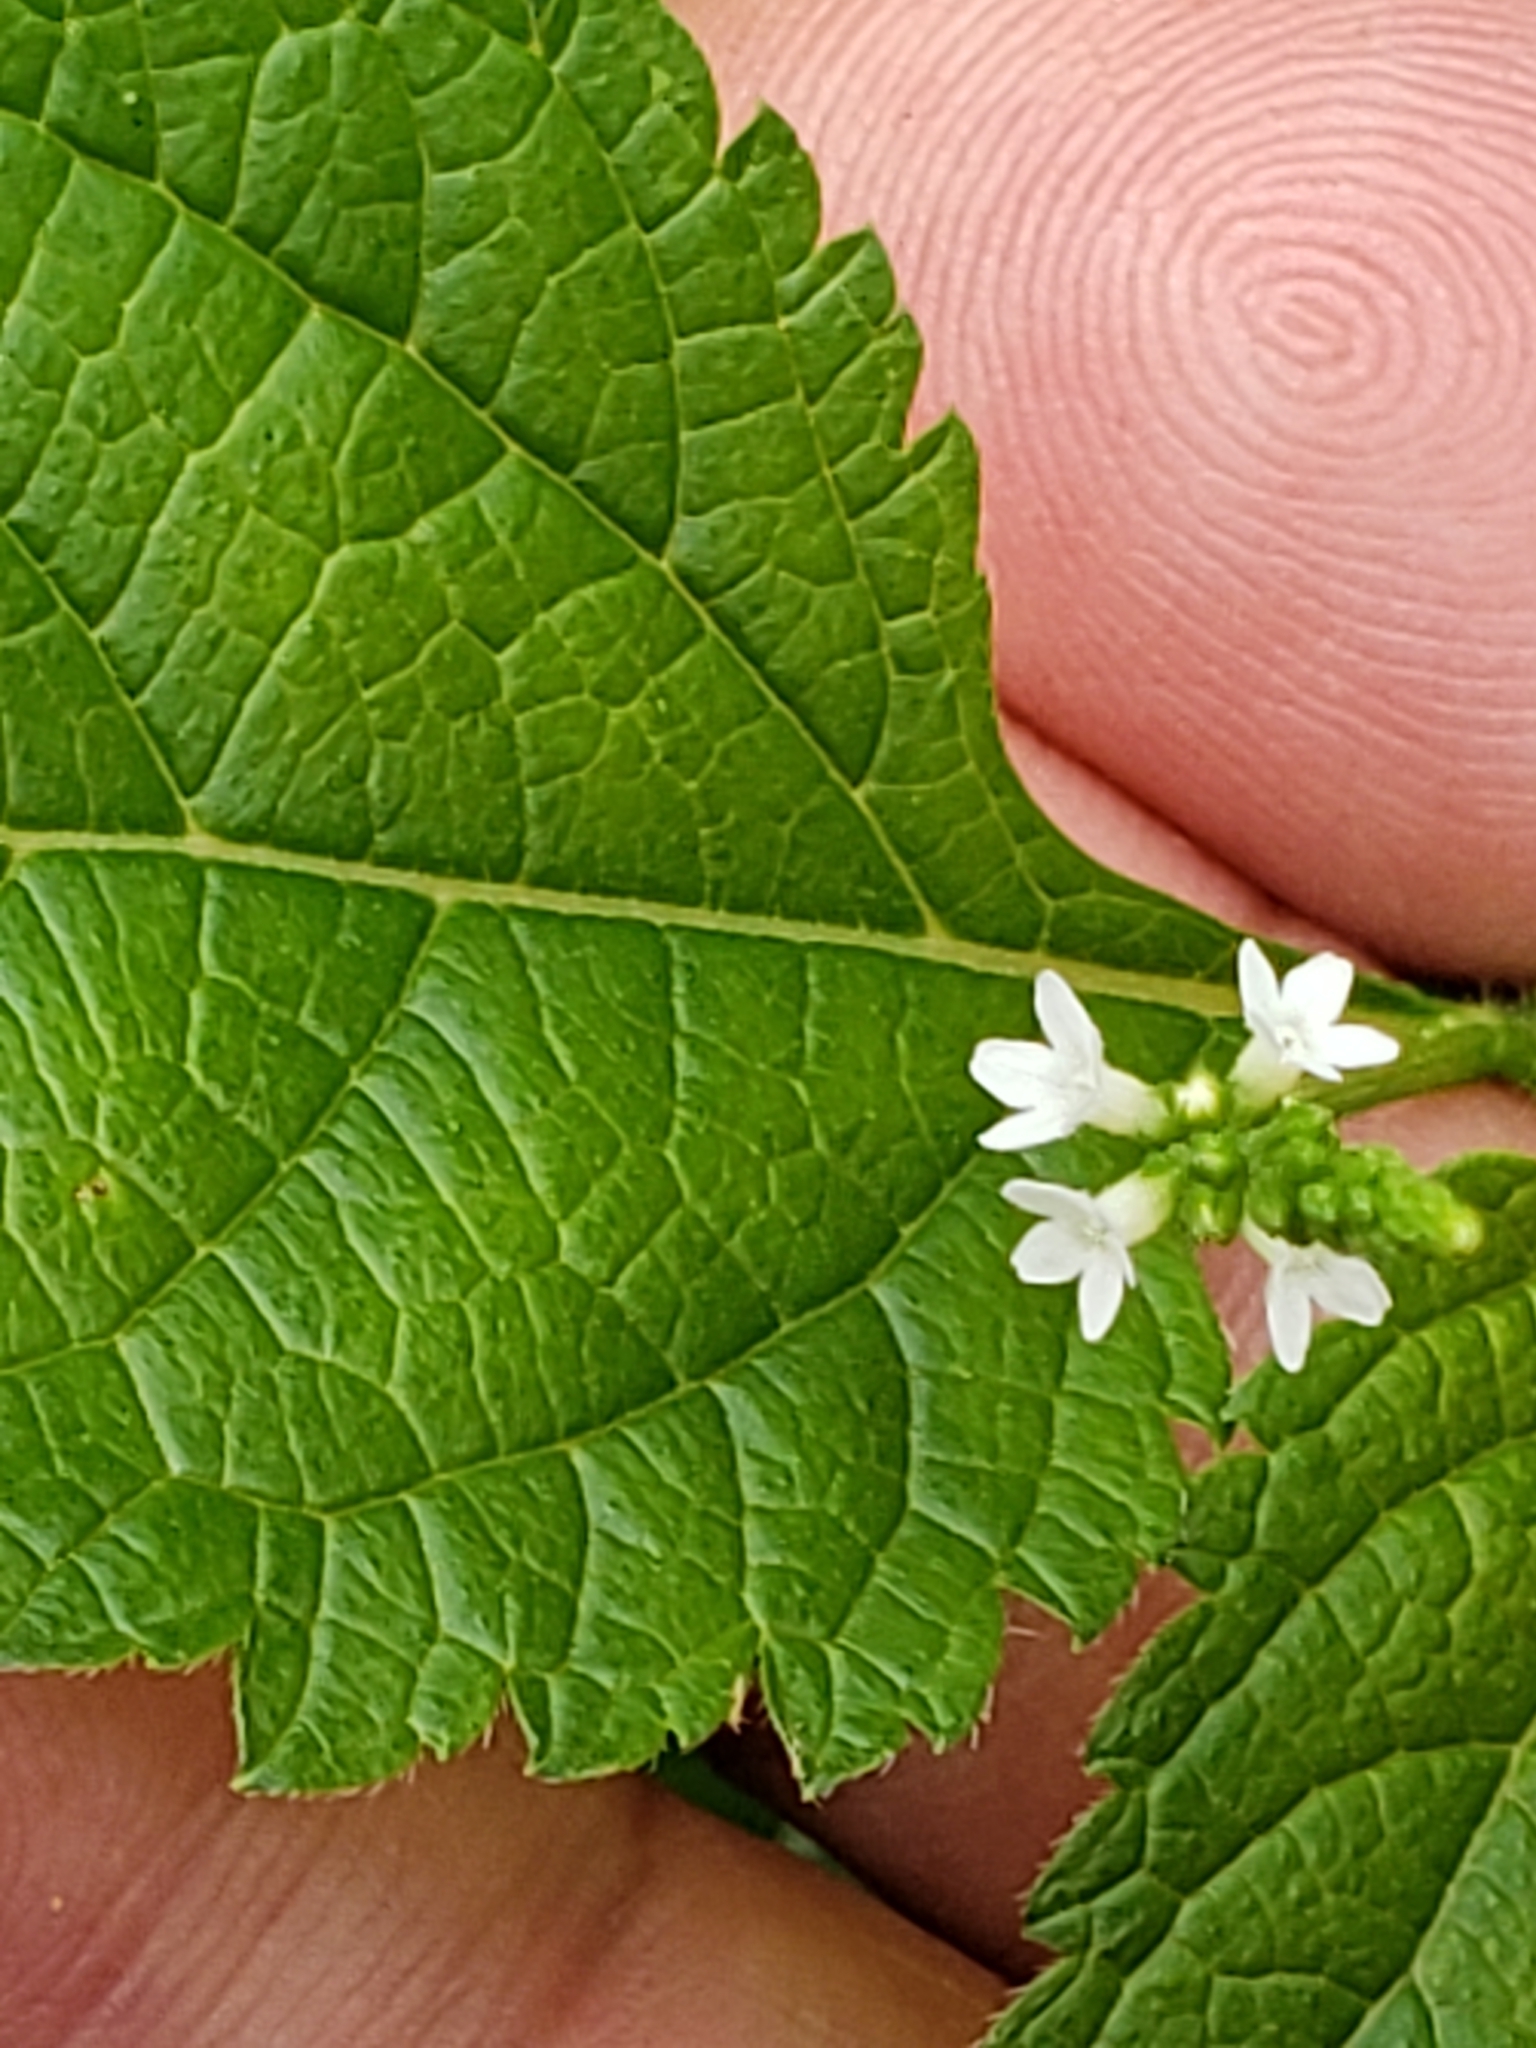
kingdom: Plantae
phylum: Tracheophyta
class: Magnoliopsida
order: Lamiales
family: Verbenaceae
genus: Verbena
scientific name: Verbena urticifolia
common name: Nettle-leaved vervain
